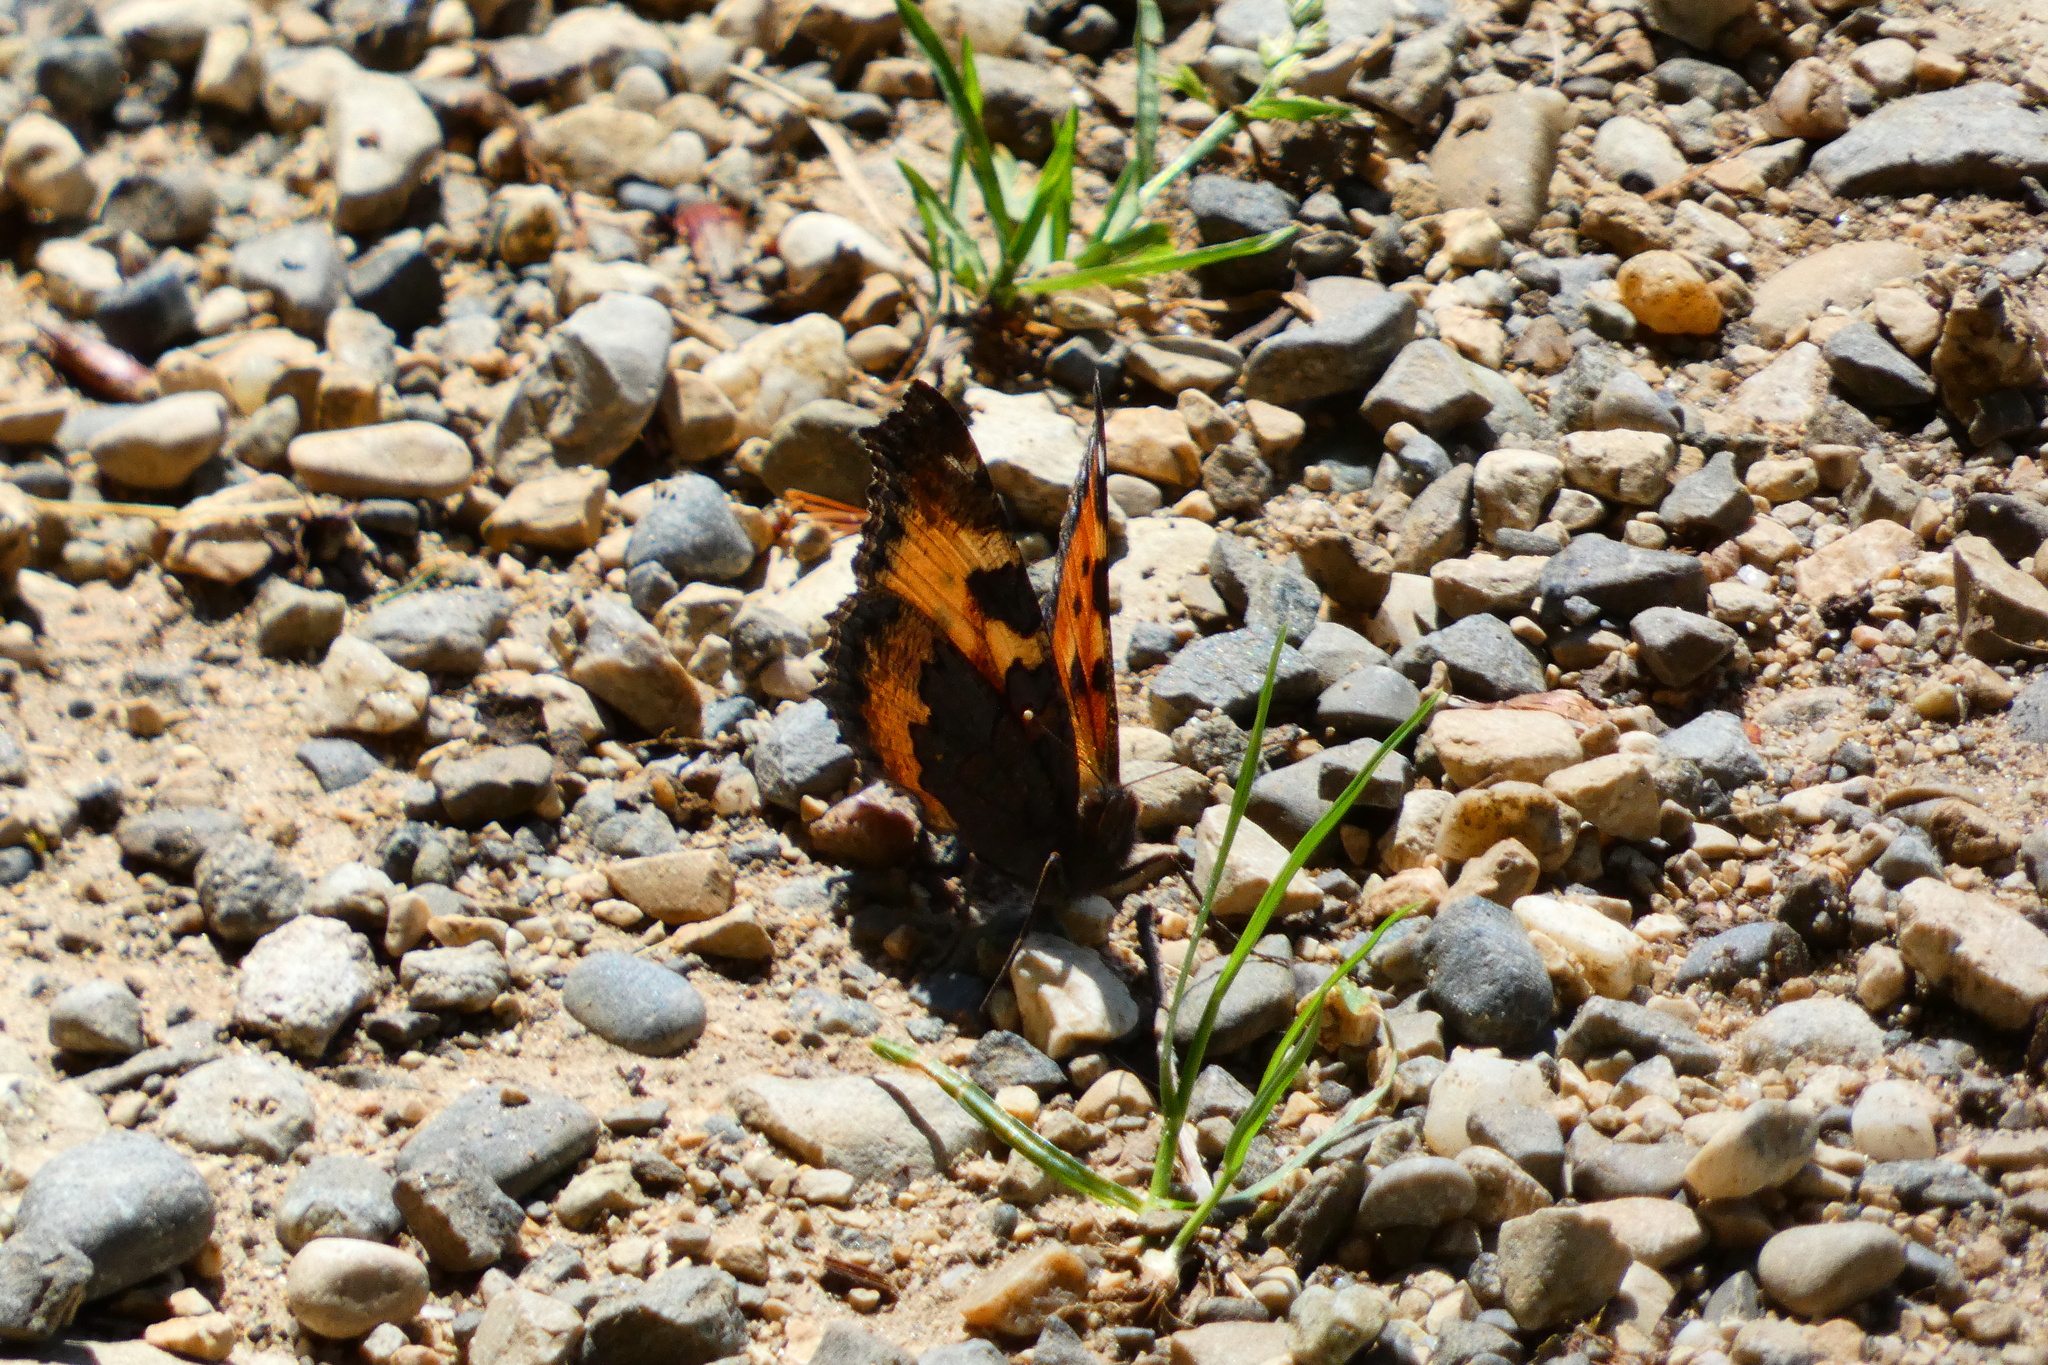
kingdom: Animalia
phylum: Arthropoda
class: Insecta
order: Lepidoptera
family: Nymphalidae
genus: Aglais
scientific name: Aglais urticae
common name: Small tortoiseshell
